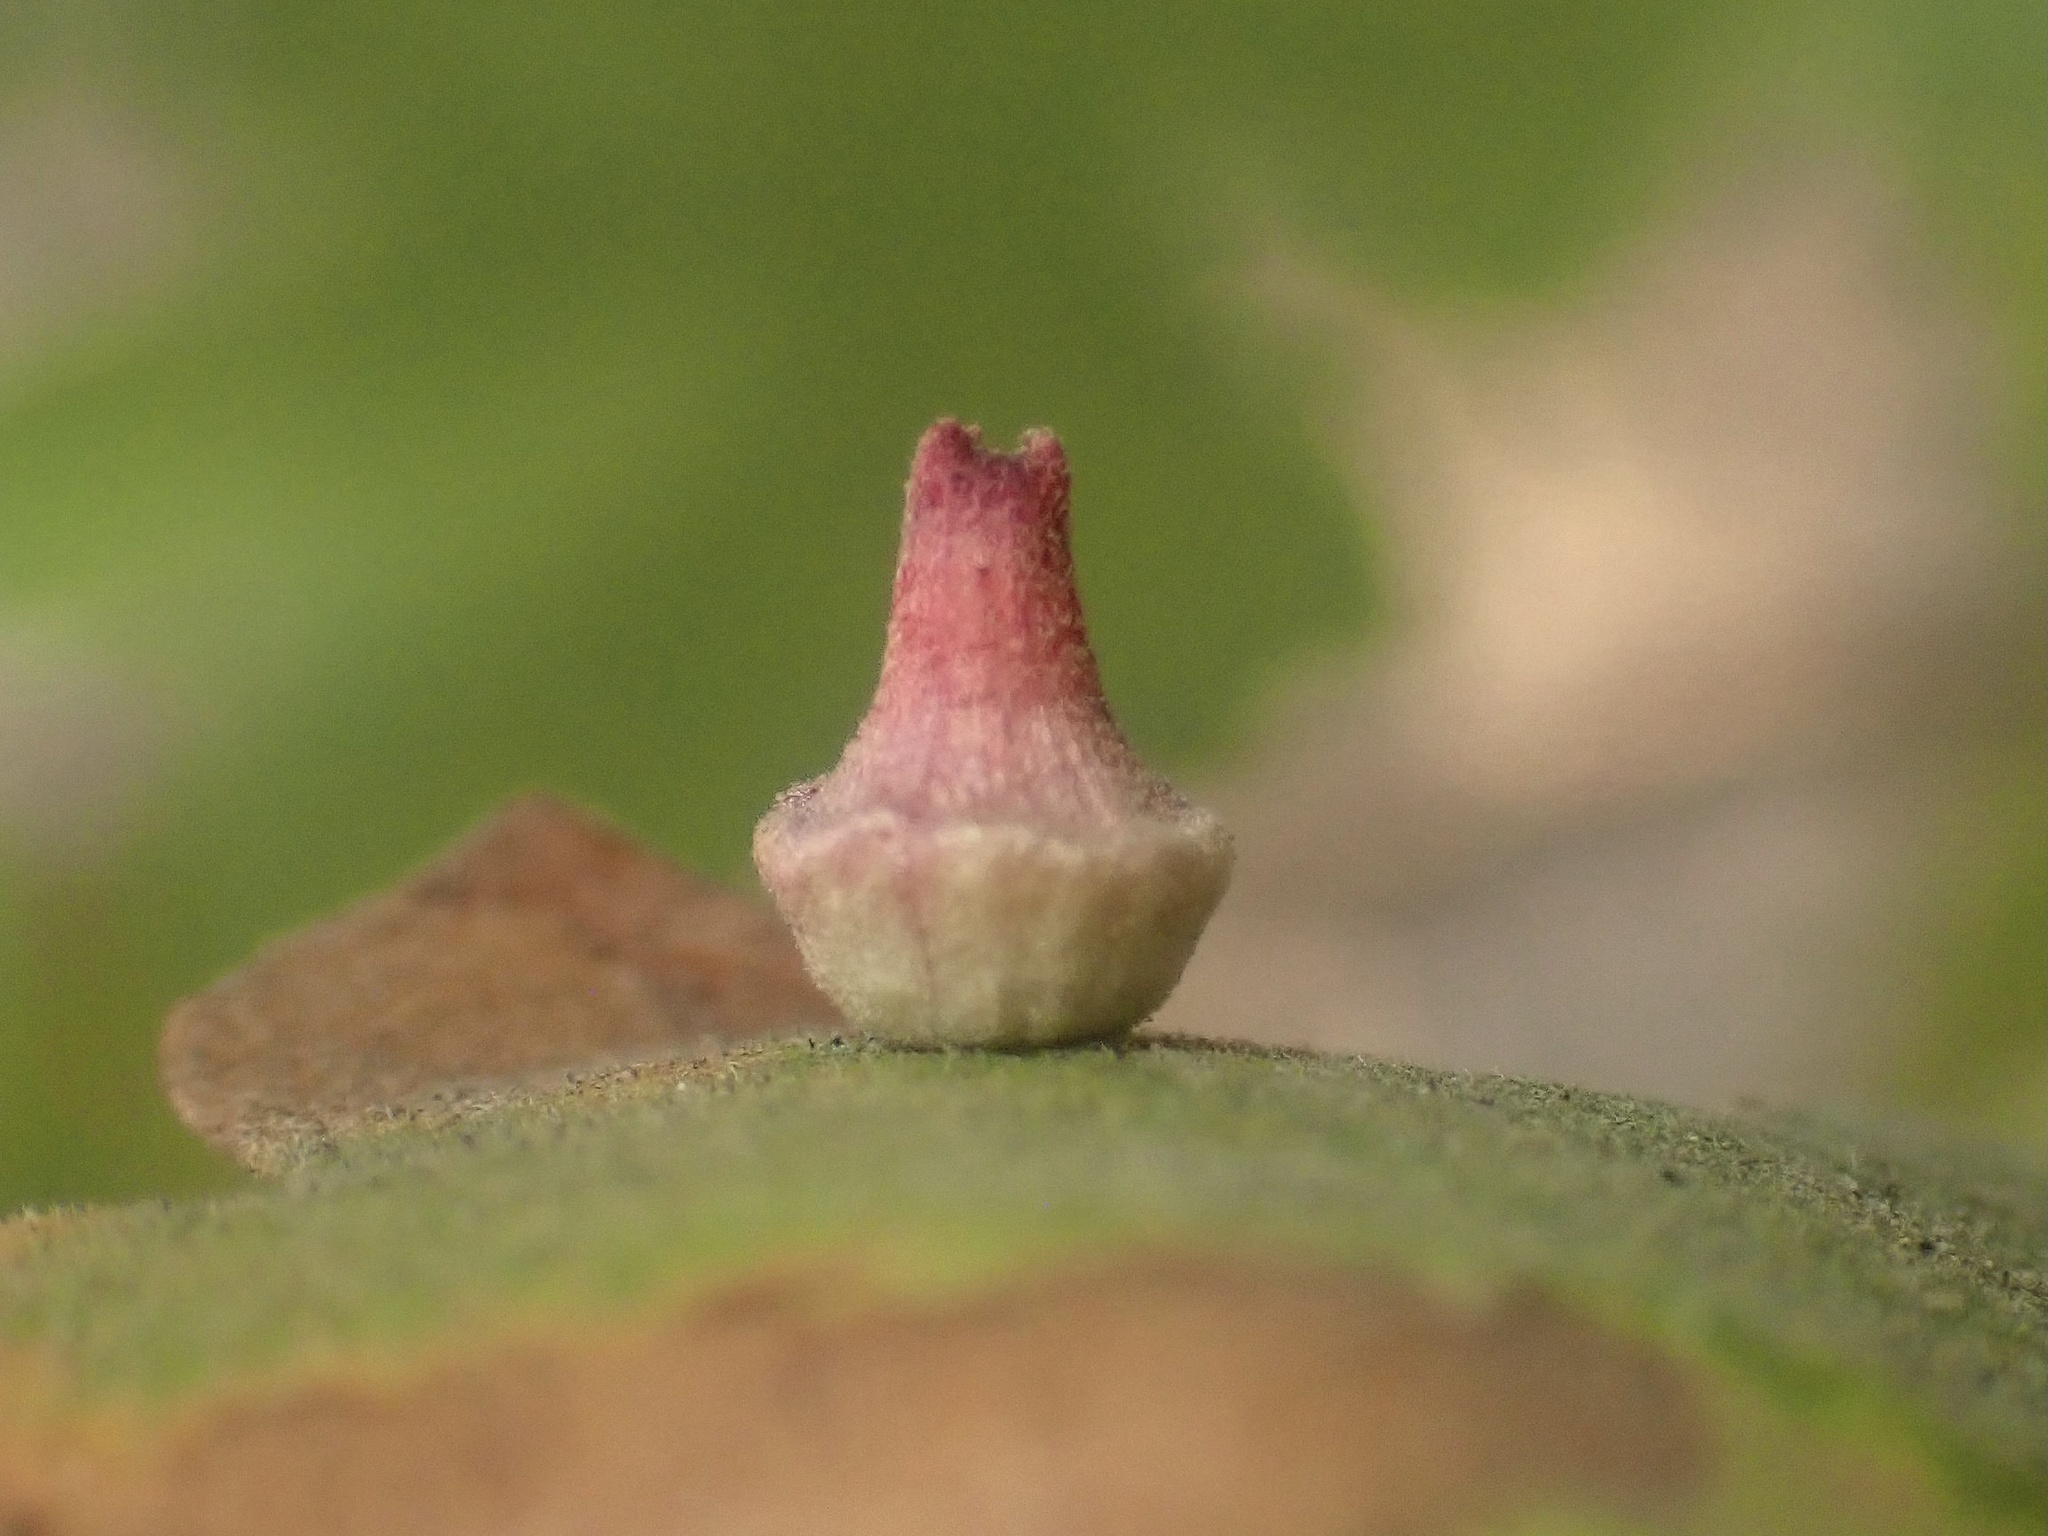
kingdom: Animalia
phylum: Arthropoda
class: Insecta
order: Hymenoptera
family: Cynipidae
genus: Andricus
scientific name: Andricus
